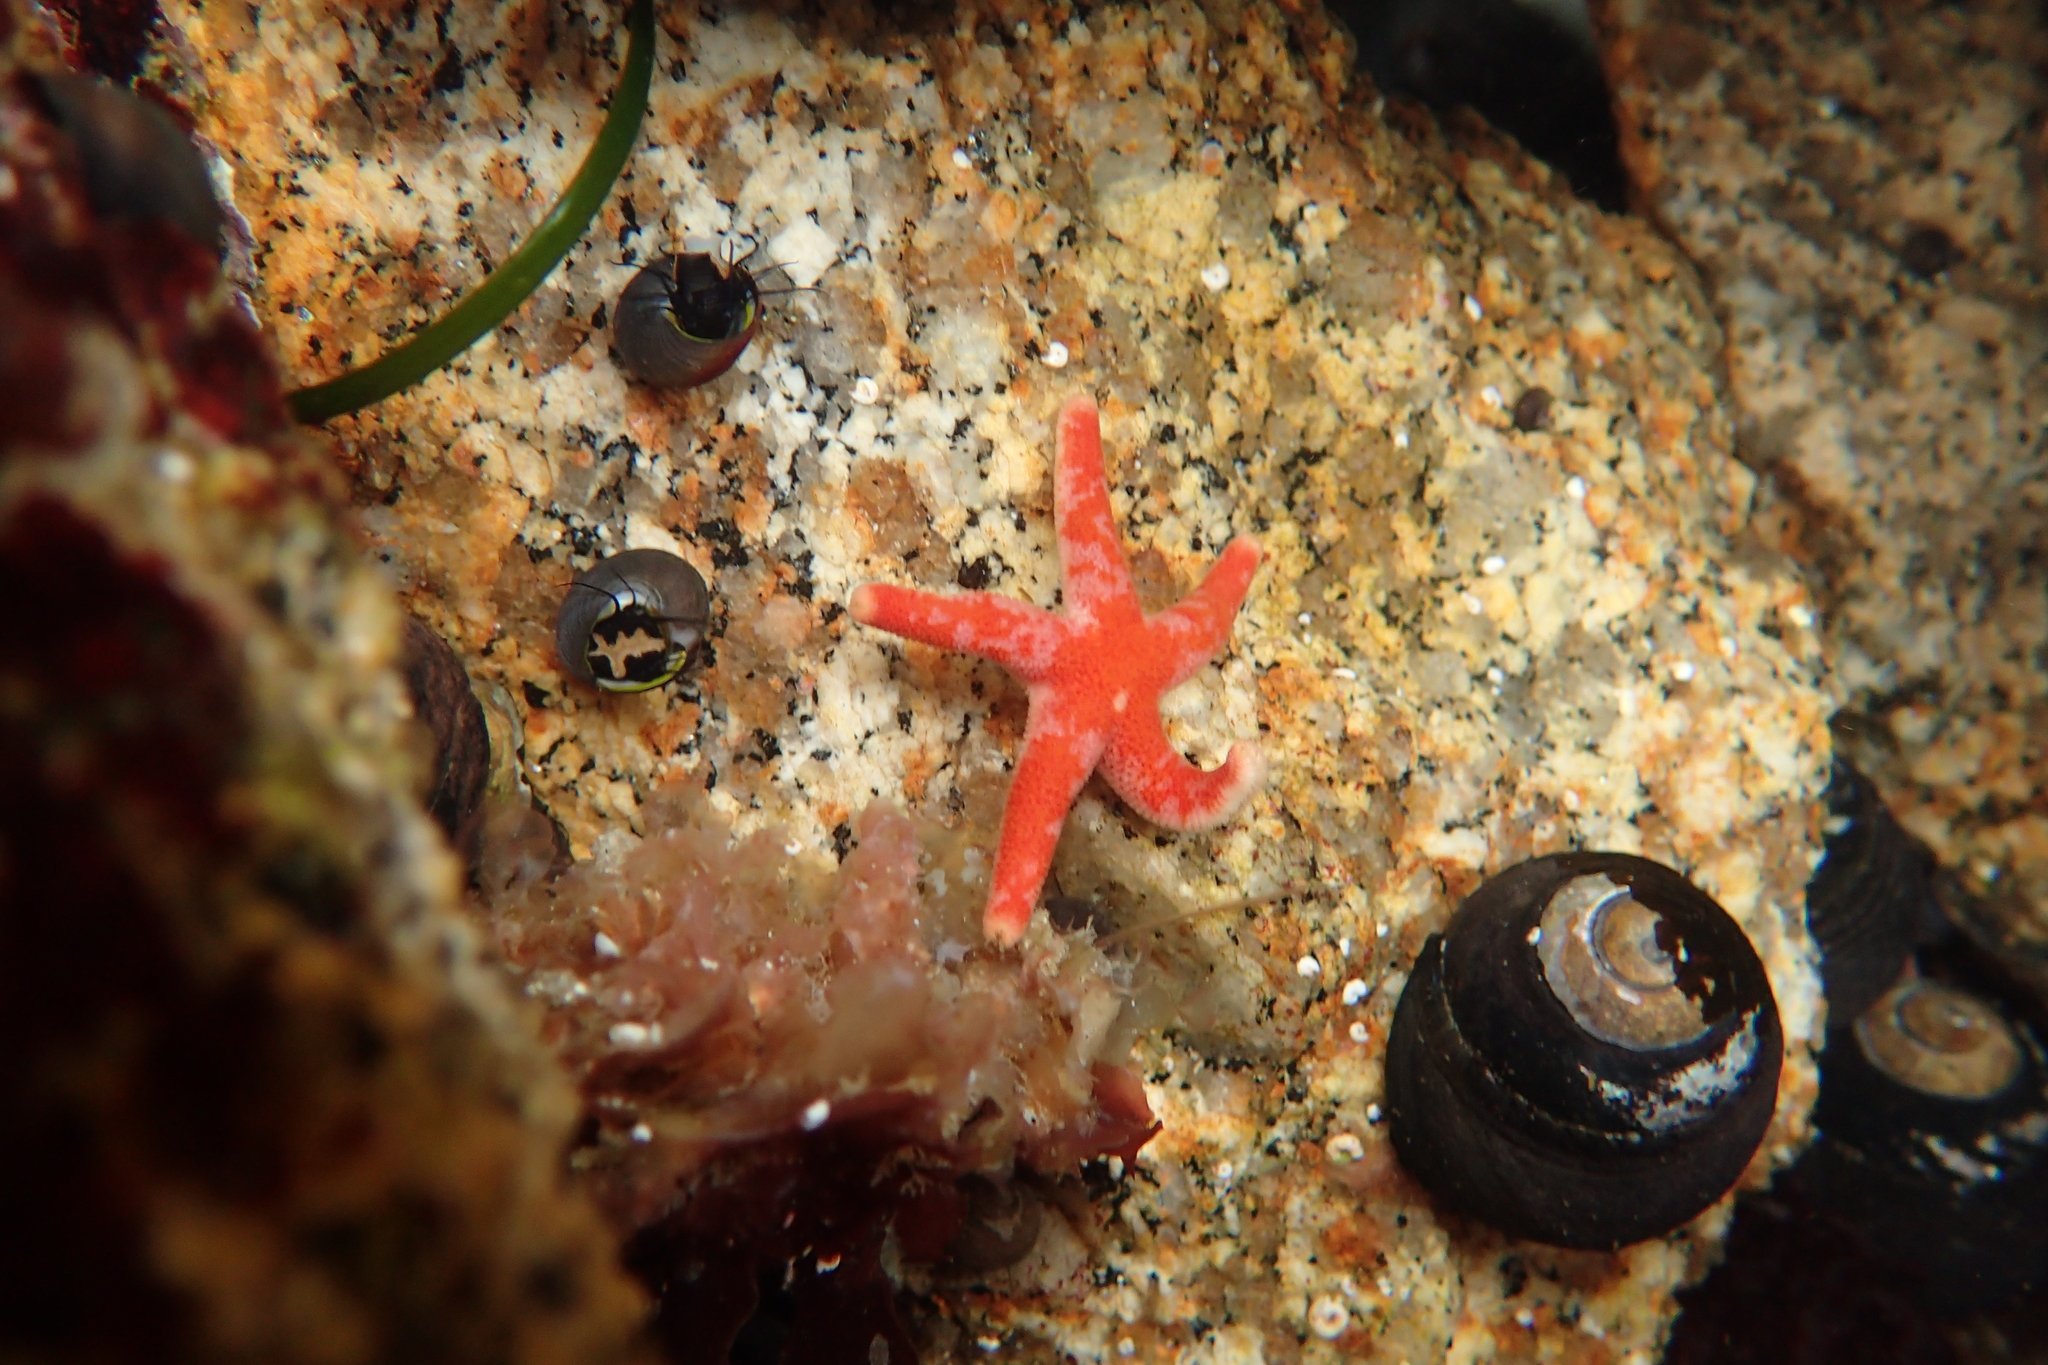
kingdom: Animalia
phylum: Echinodermata
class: Asteroidea
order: Spinulosida
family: Echinasteridae
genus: Henricia
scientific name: Henricia pumila
